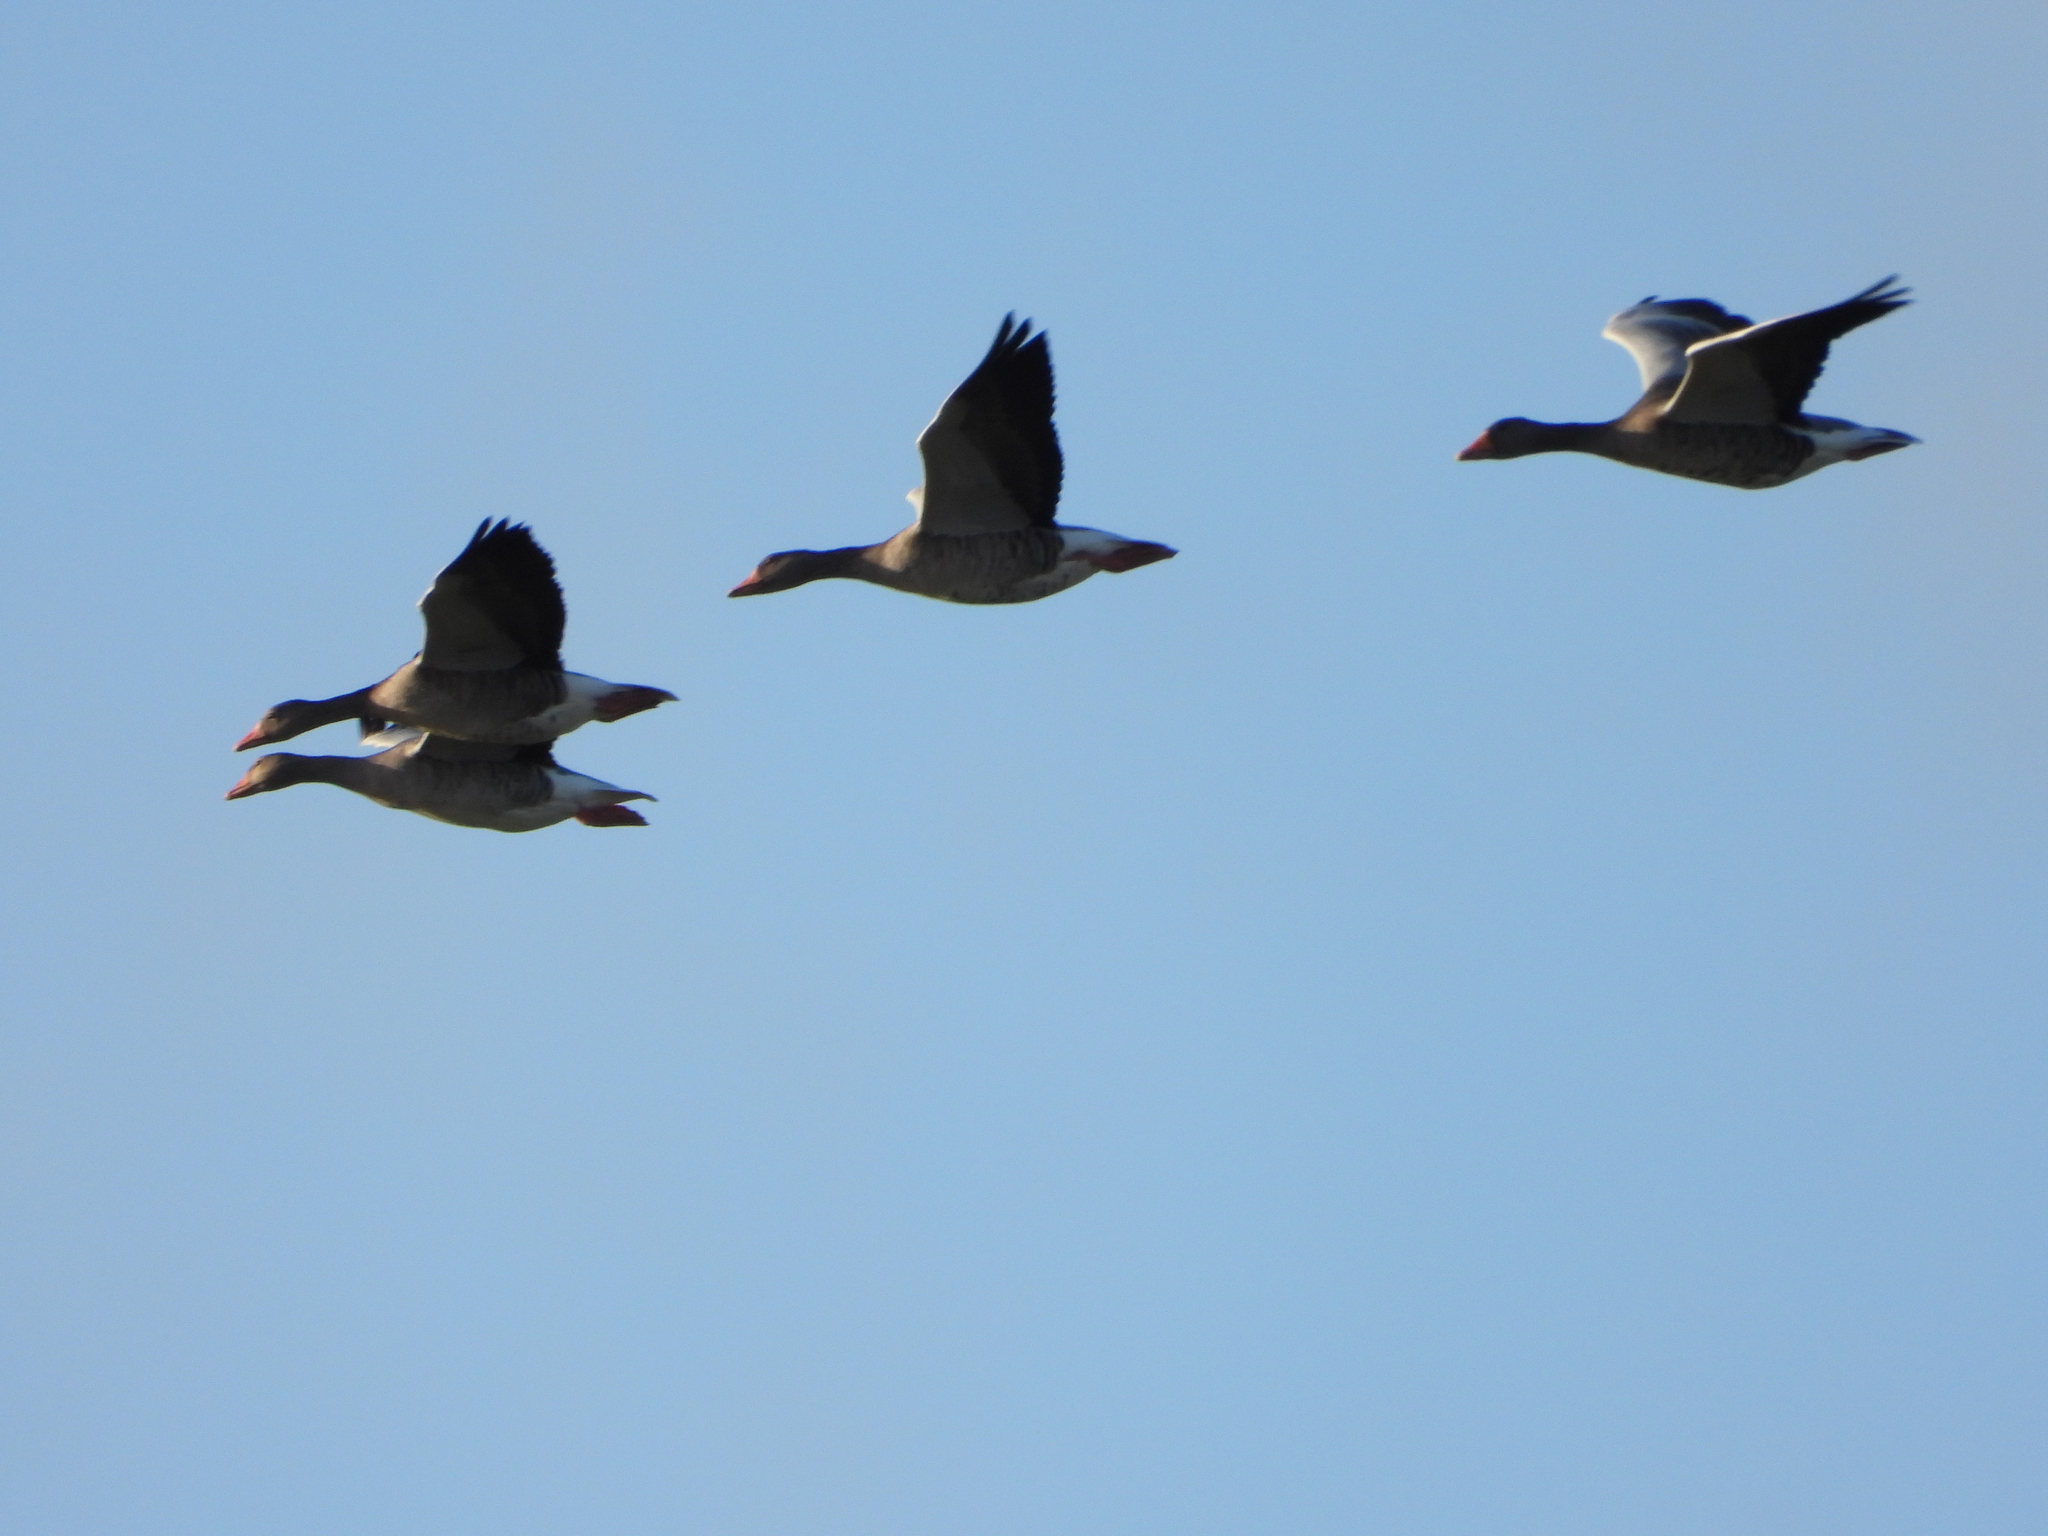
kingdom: Animalia
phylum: Chordata
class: Aves
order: Anseriformes
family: Anatidae
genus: Anser
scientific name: Anser anser
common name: Greylag goose
